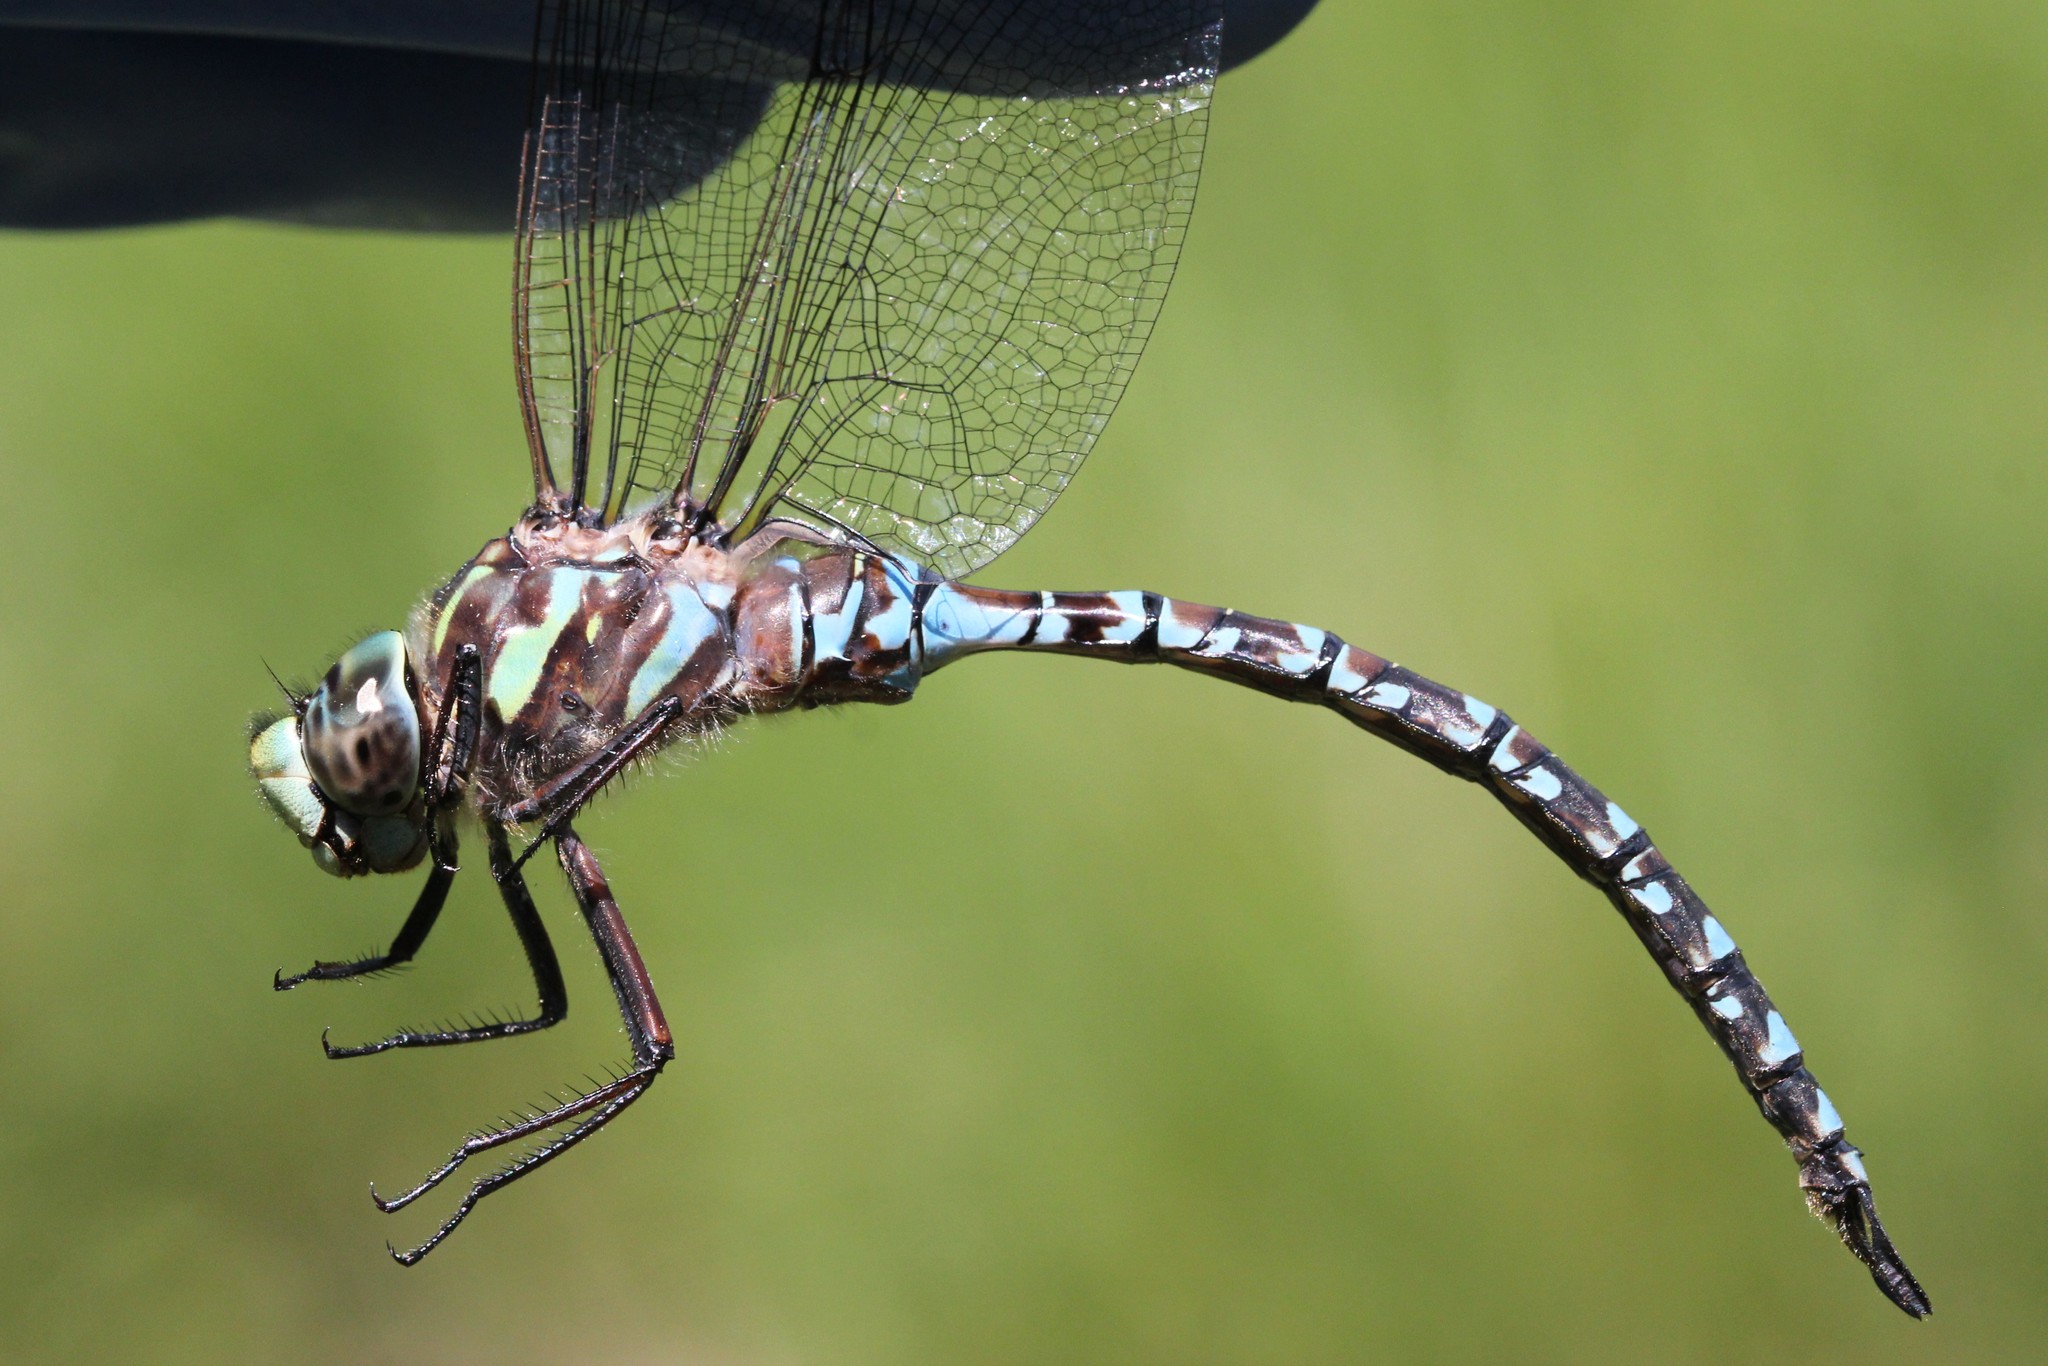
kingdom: Animalia
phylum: Arthropoda
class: Insecta
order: Odonata
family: Aeshnidae
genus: Aeshna
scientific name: Aeshna canadensis
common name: Canada darner
